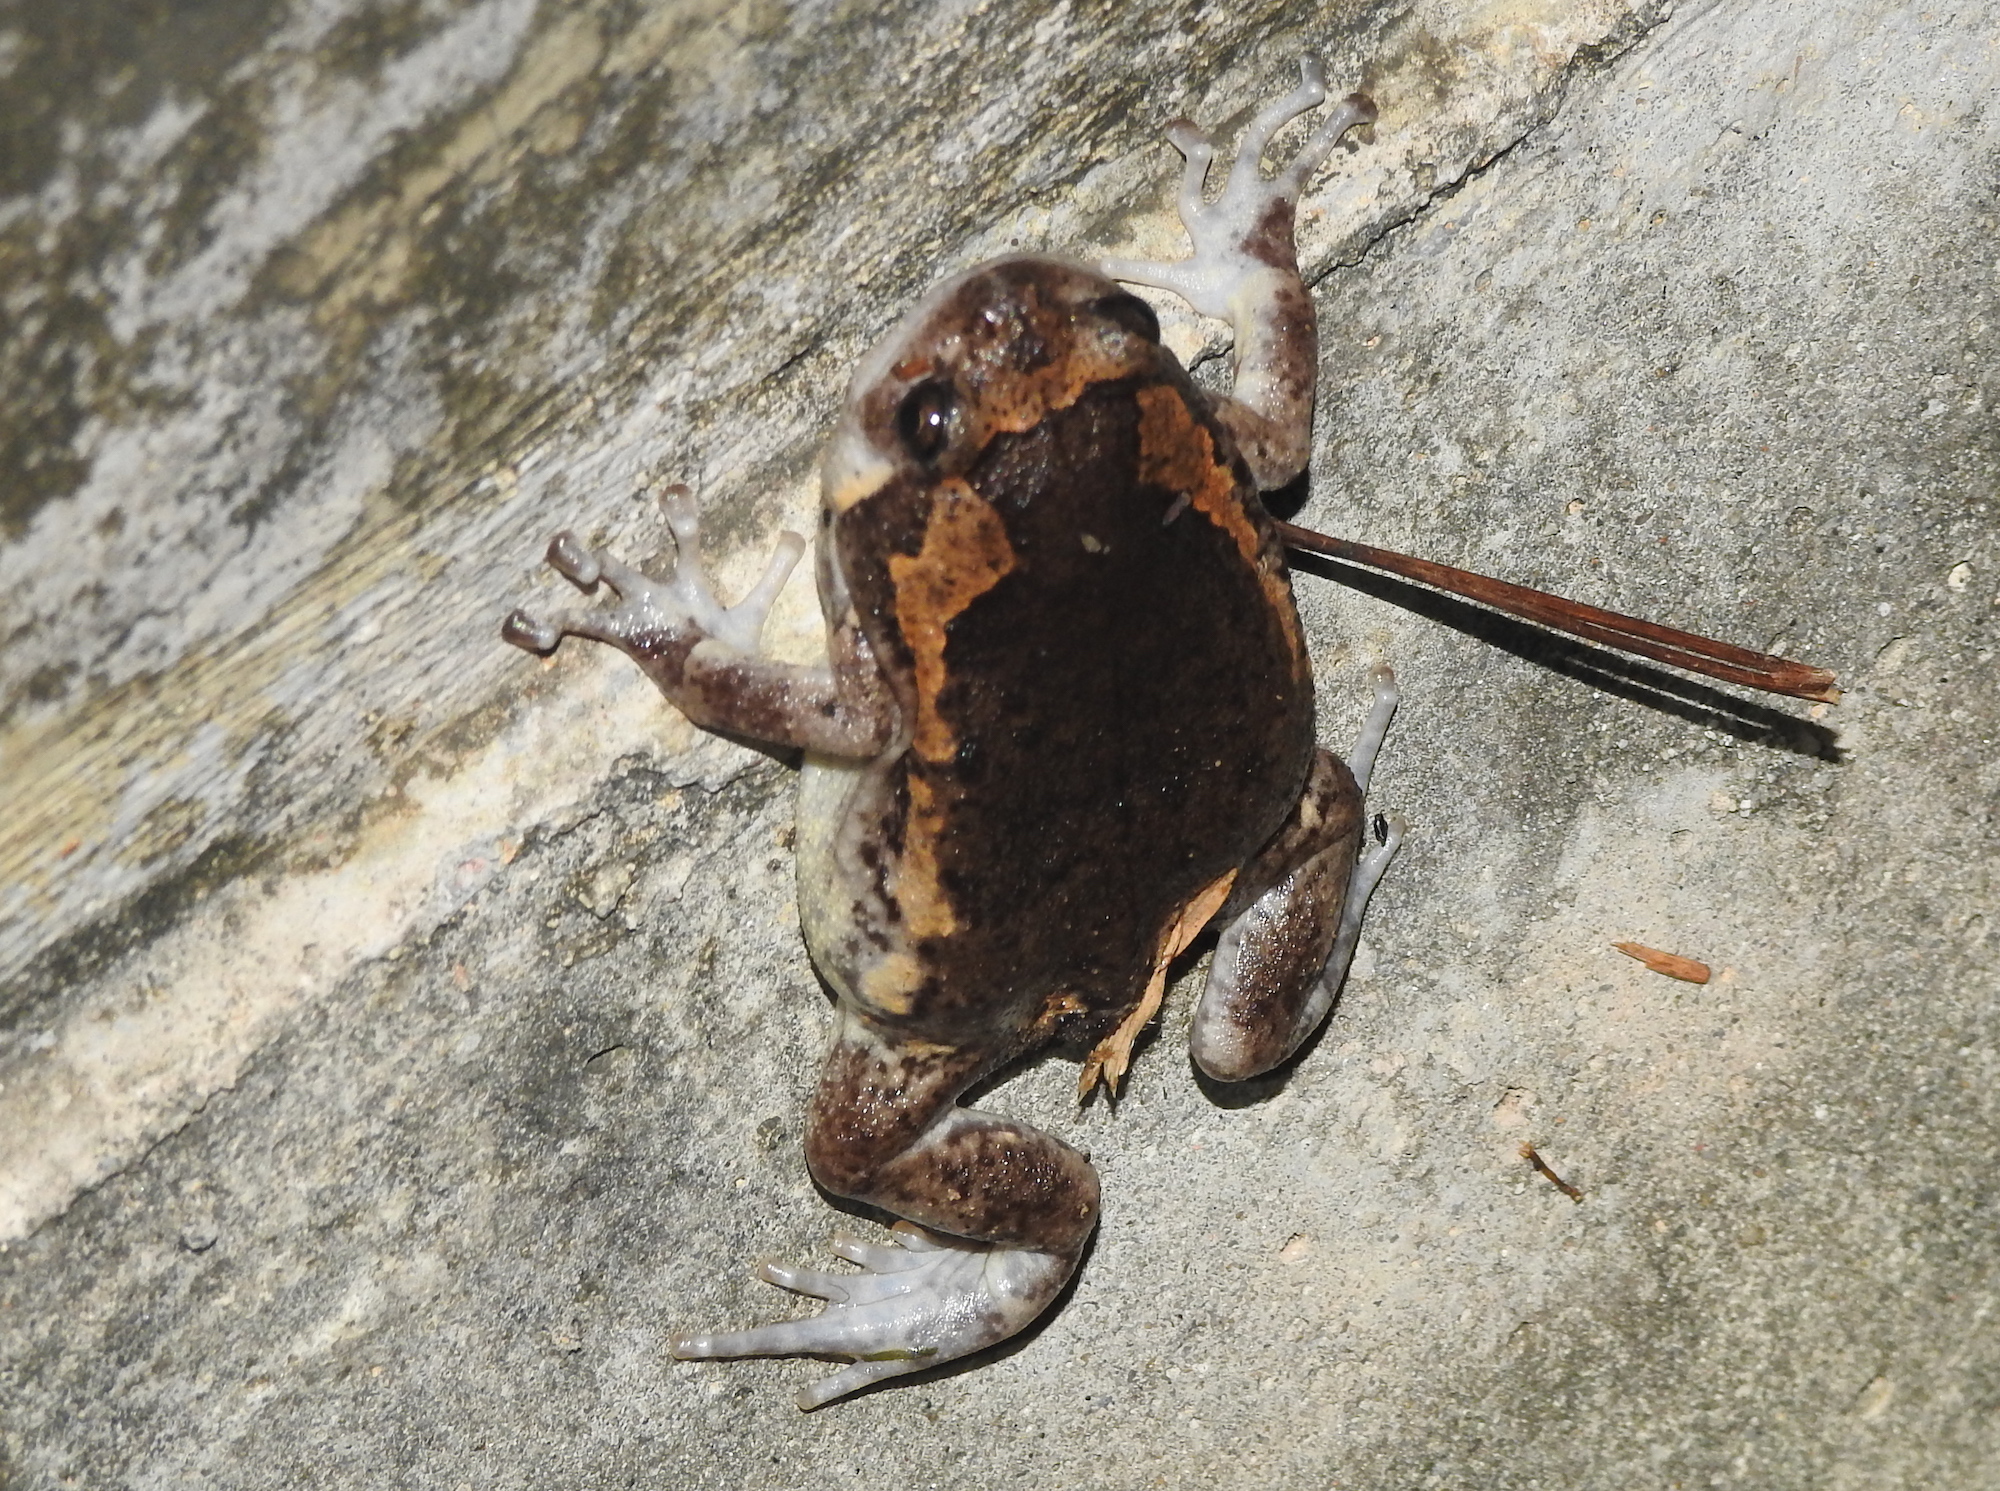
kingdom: Animalia
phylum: Chordata
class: Amphibia
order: Anura
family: Microhylidae
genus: Kaloula
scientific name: Kaloula pulchra
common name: Common,banded bullfrog
